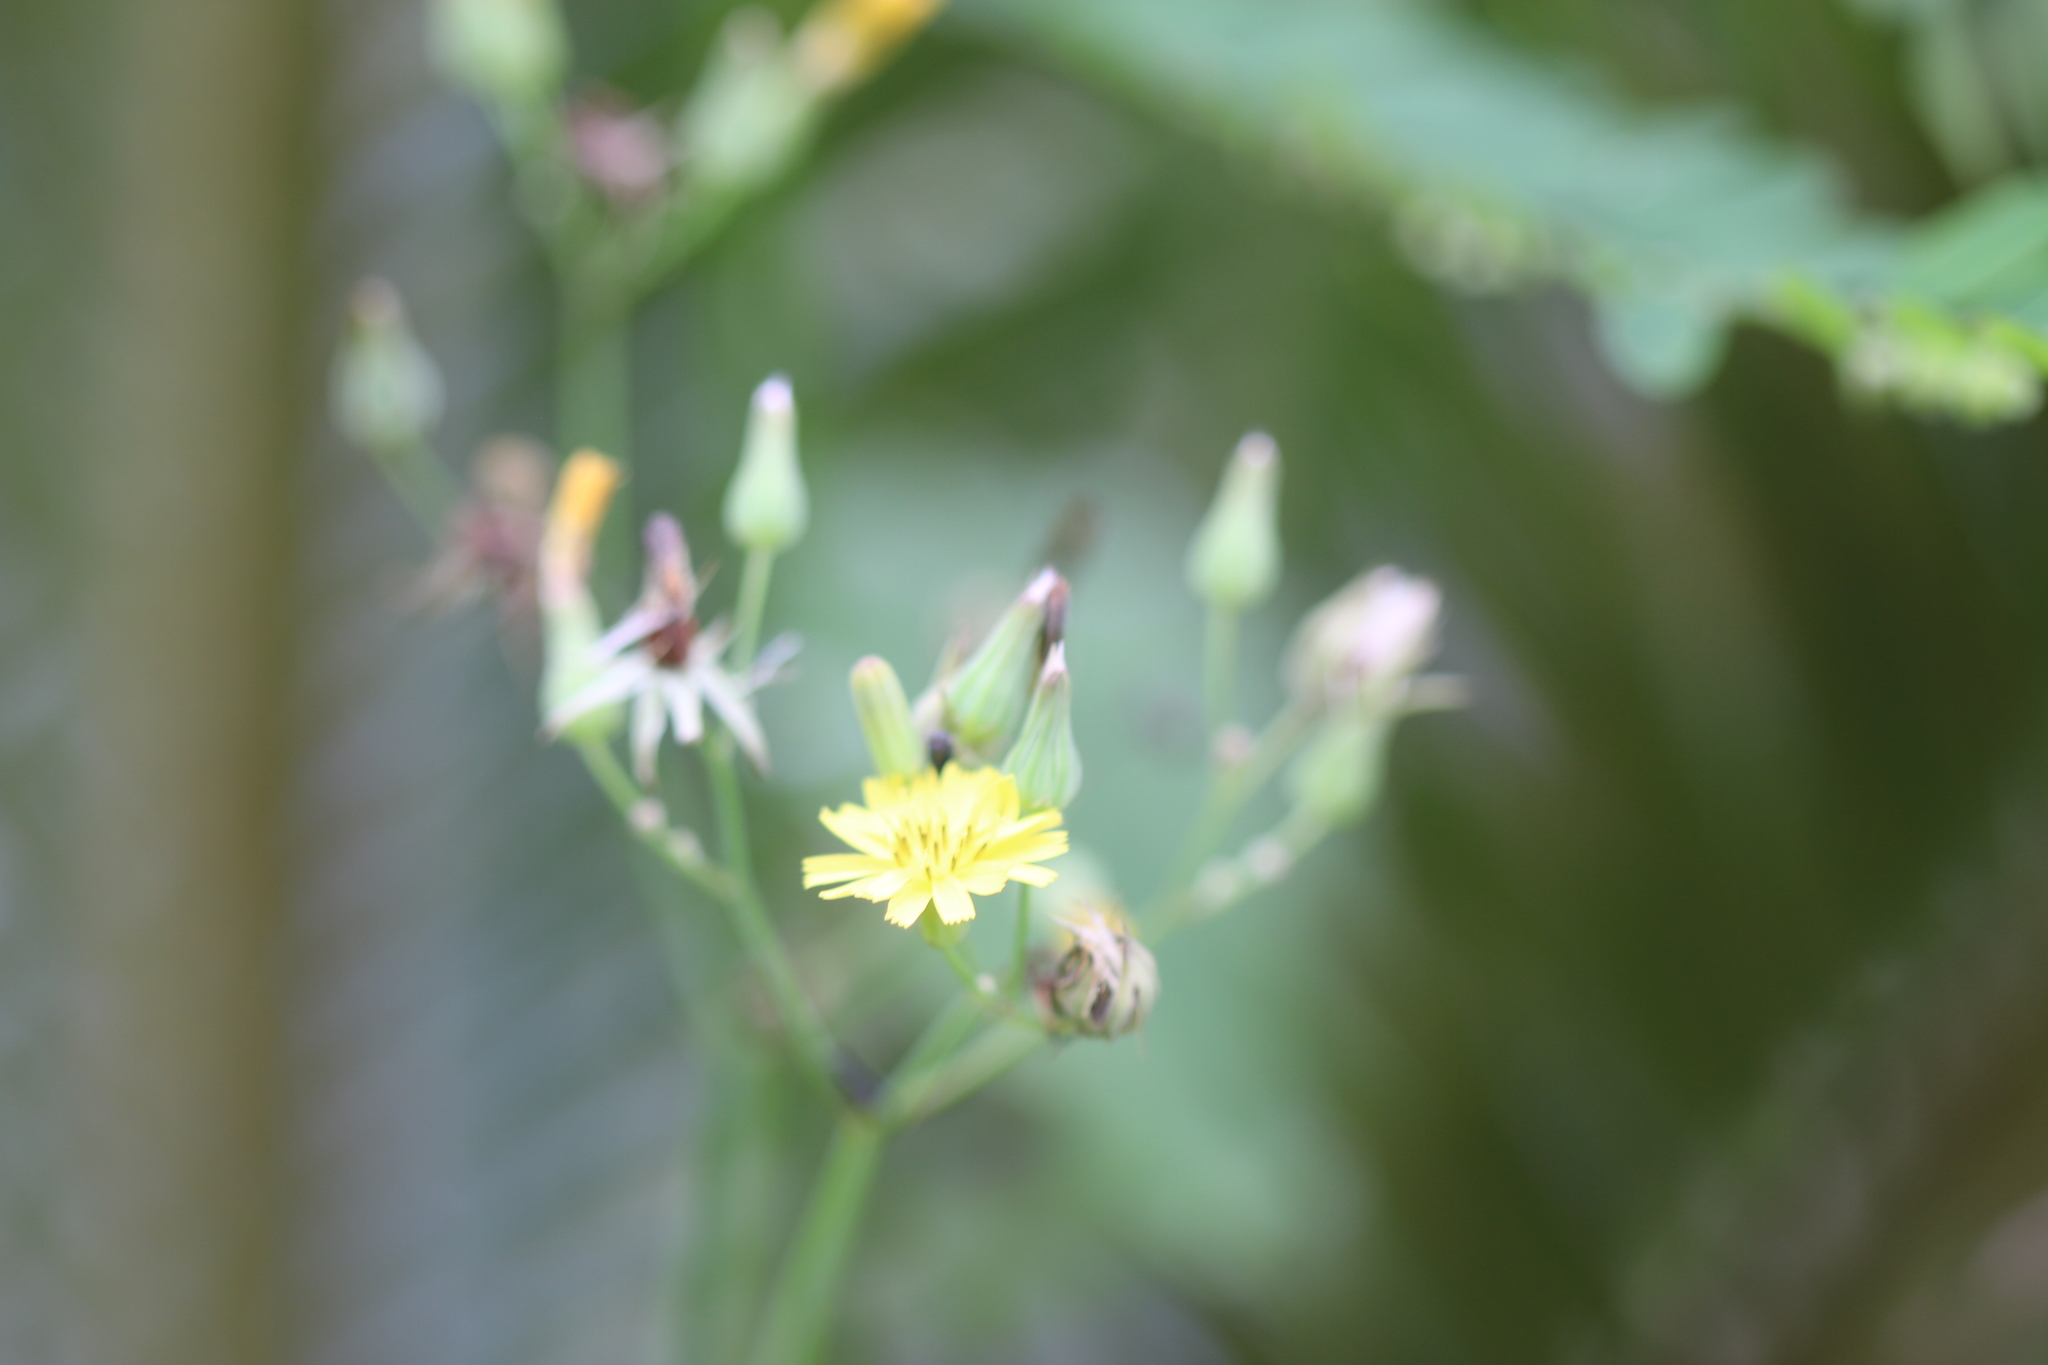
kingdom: Plantae
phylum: Tracheophyta
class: Magnoliopsida
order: Asterales
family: Asteraceae
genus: Youngia
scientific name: Youngia japonica
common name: Oriental false hawksbeard
